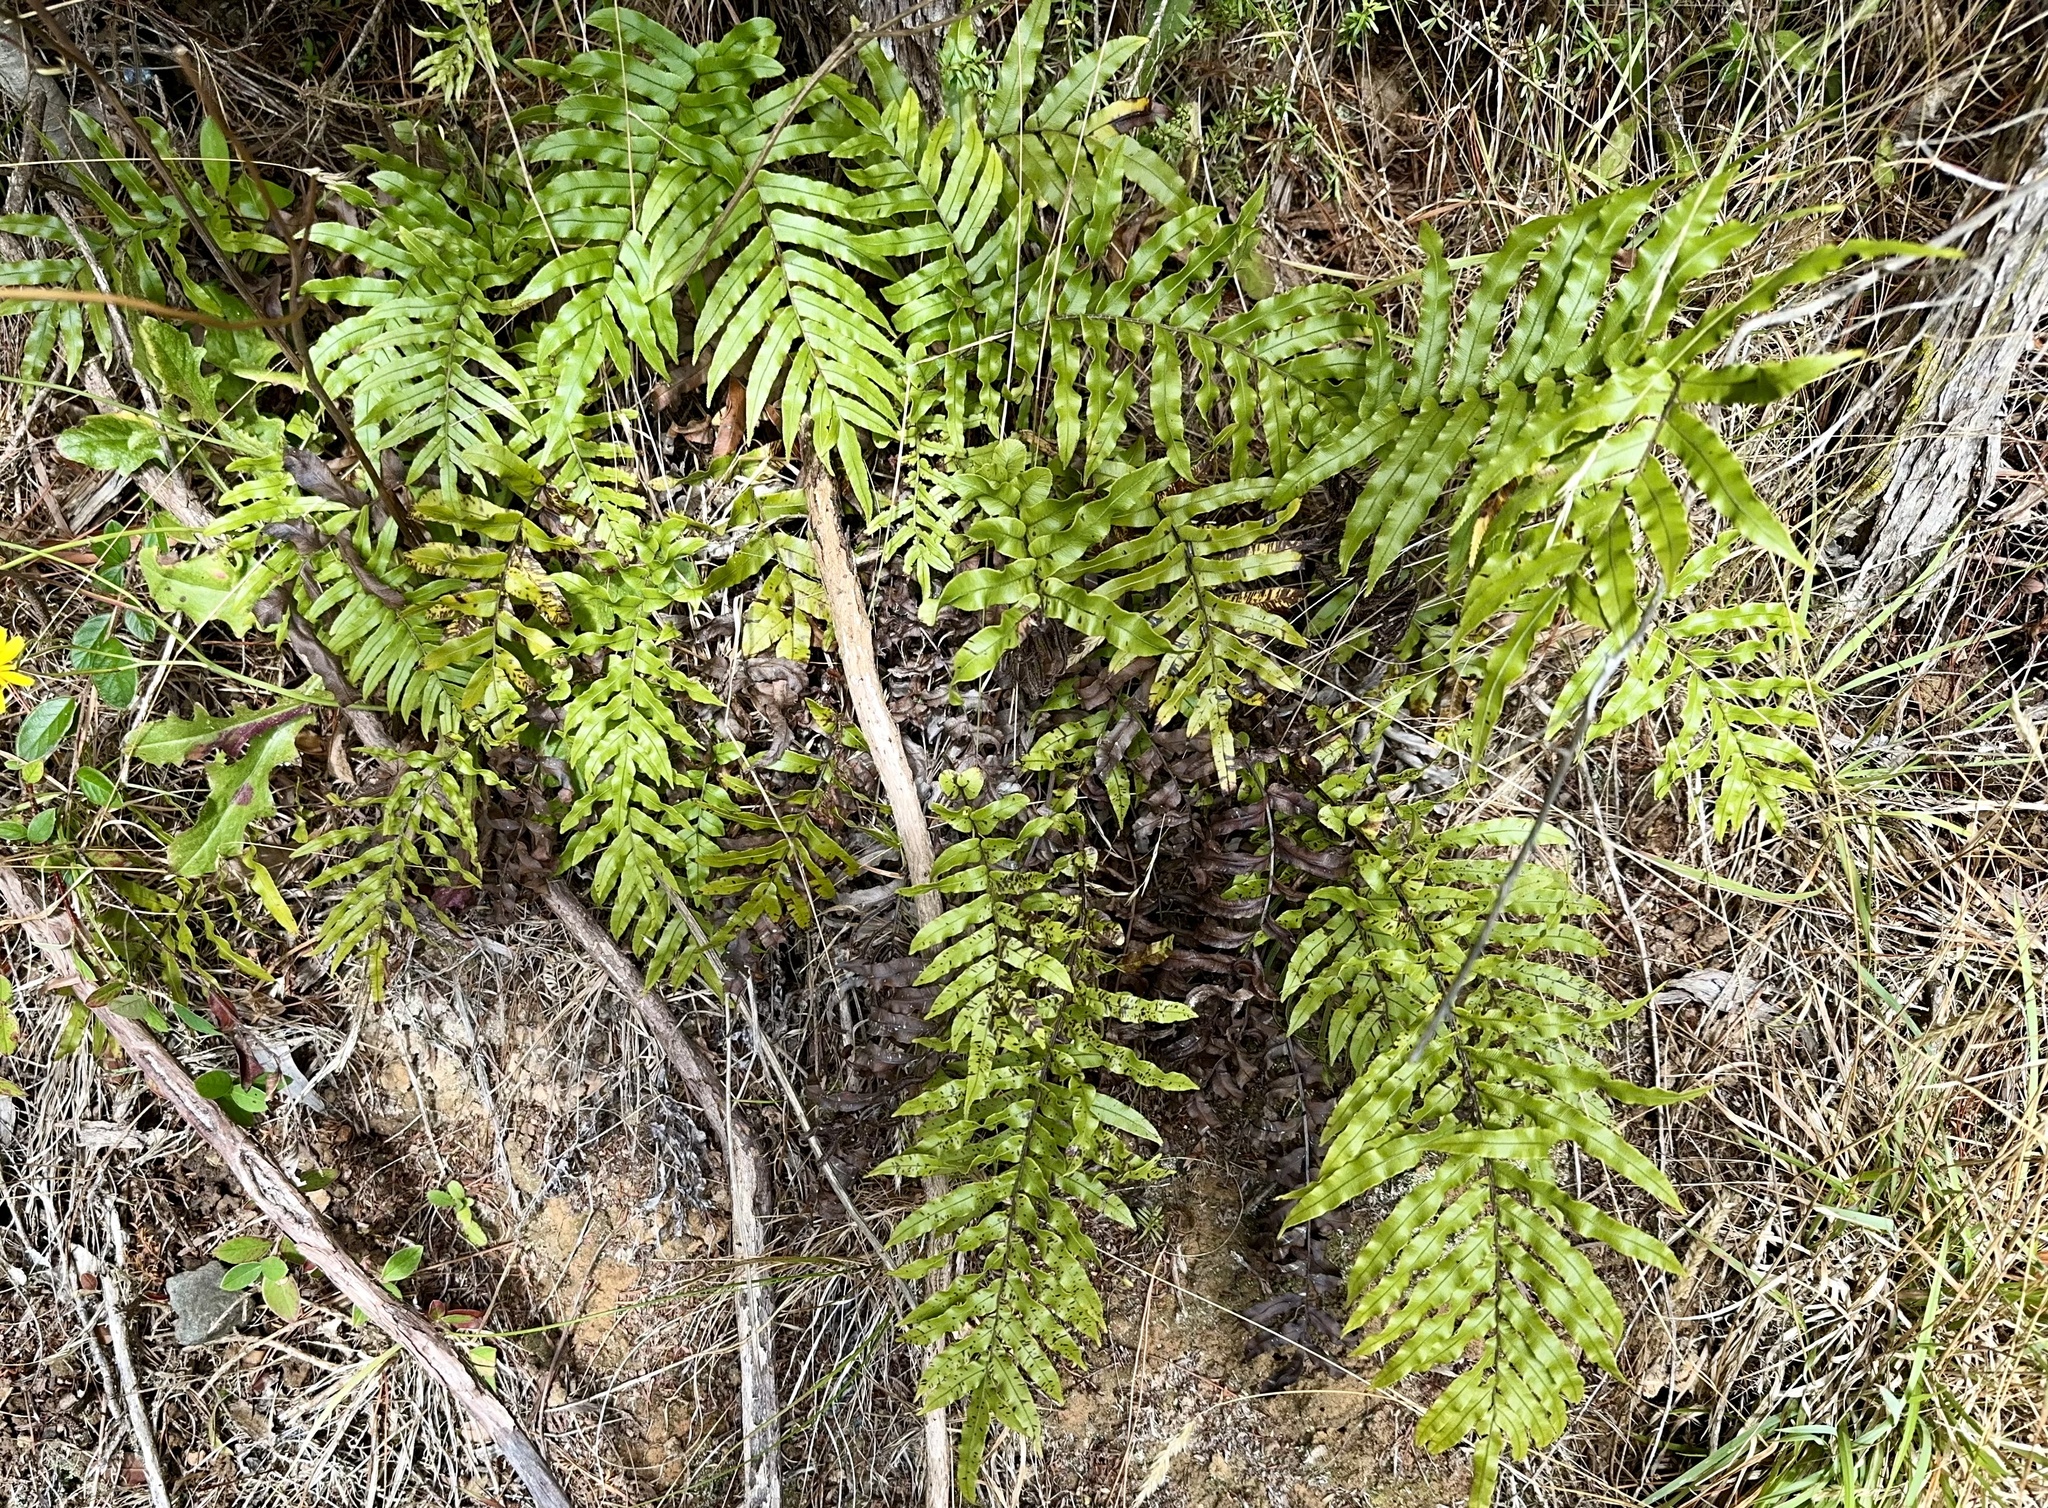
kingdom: Plantae
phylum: Tracheophyta
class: Polypodiopsida
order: Polypodiales
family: Blechnaceae
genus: Parablechnum
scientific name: Parablechnum minus
